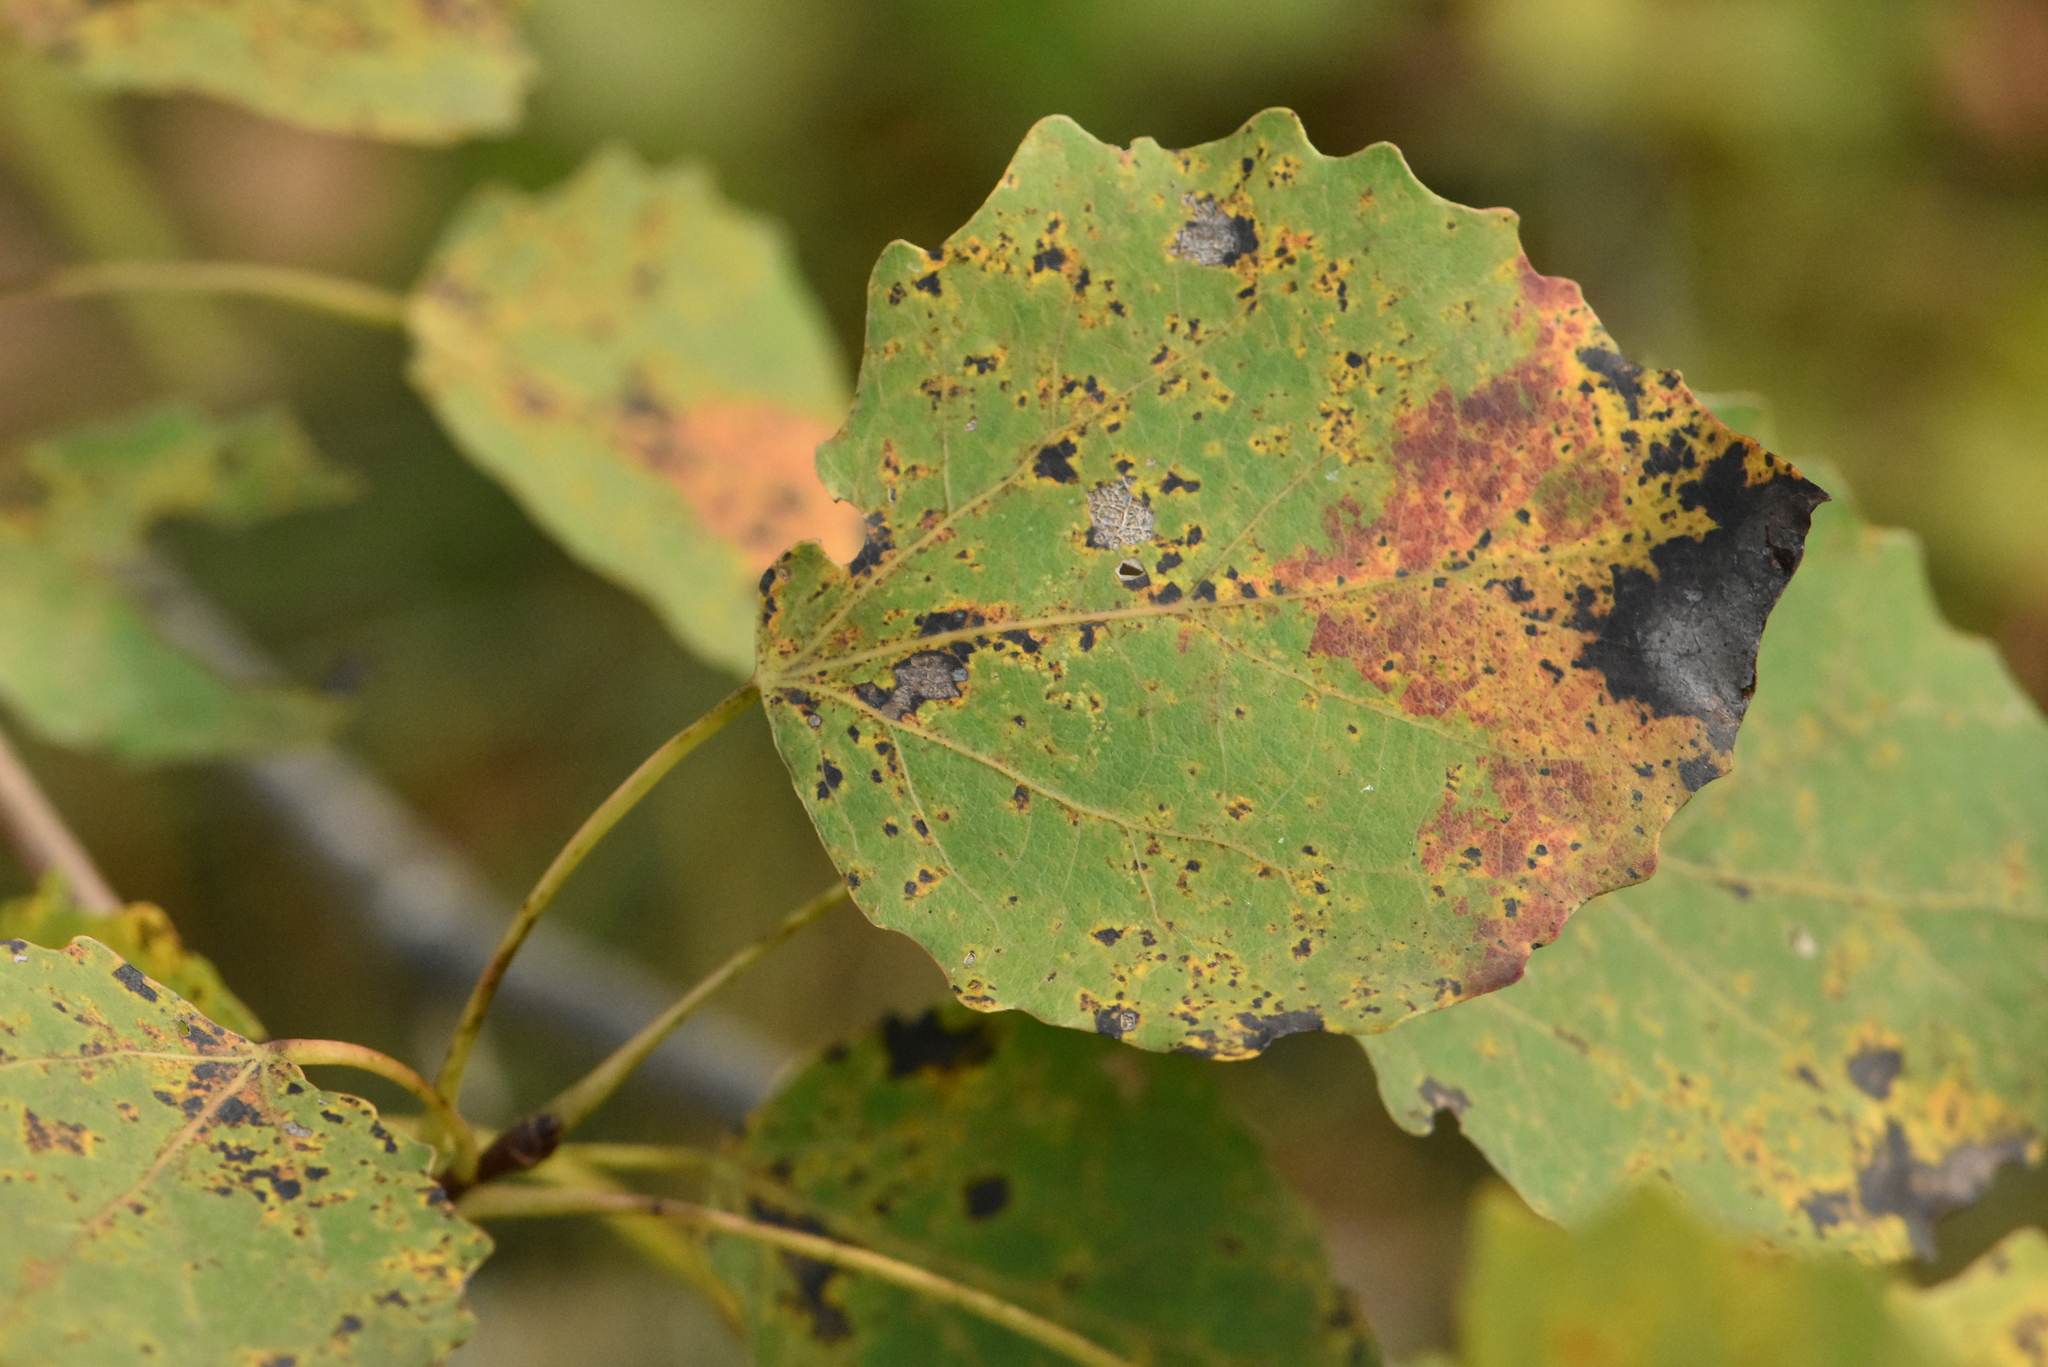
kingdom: Plantae
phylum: Tracheophyta
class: Magnoliopsida
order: Malpighiales
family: Salicaceae
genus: Populus
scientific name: Populus tremula
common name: European aspen
